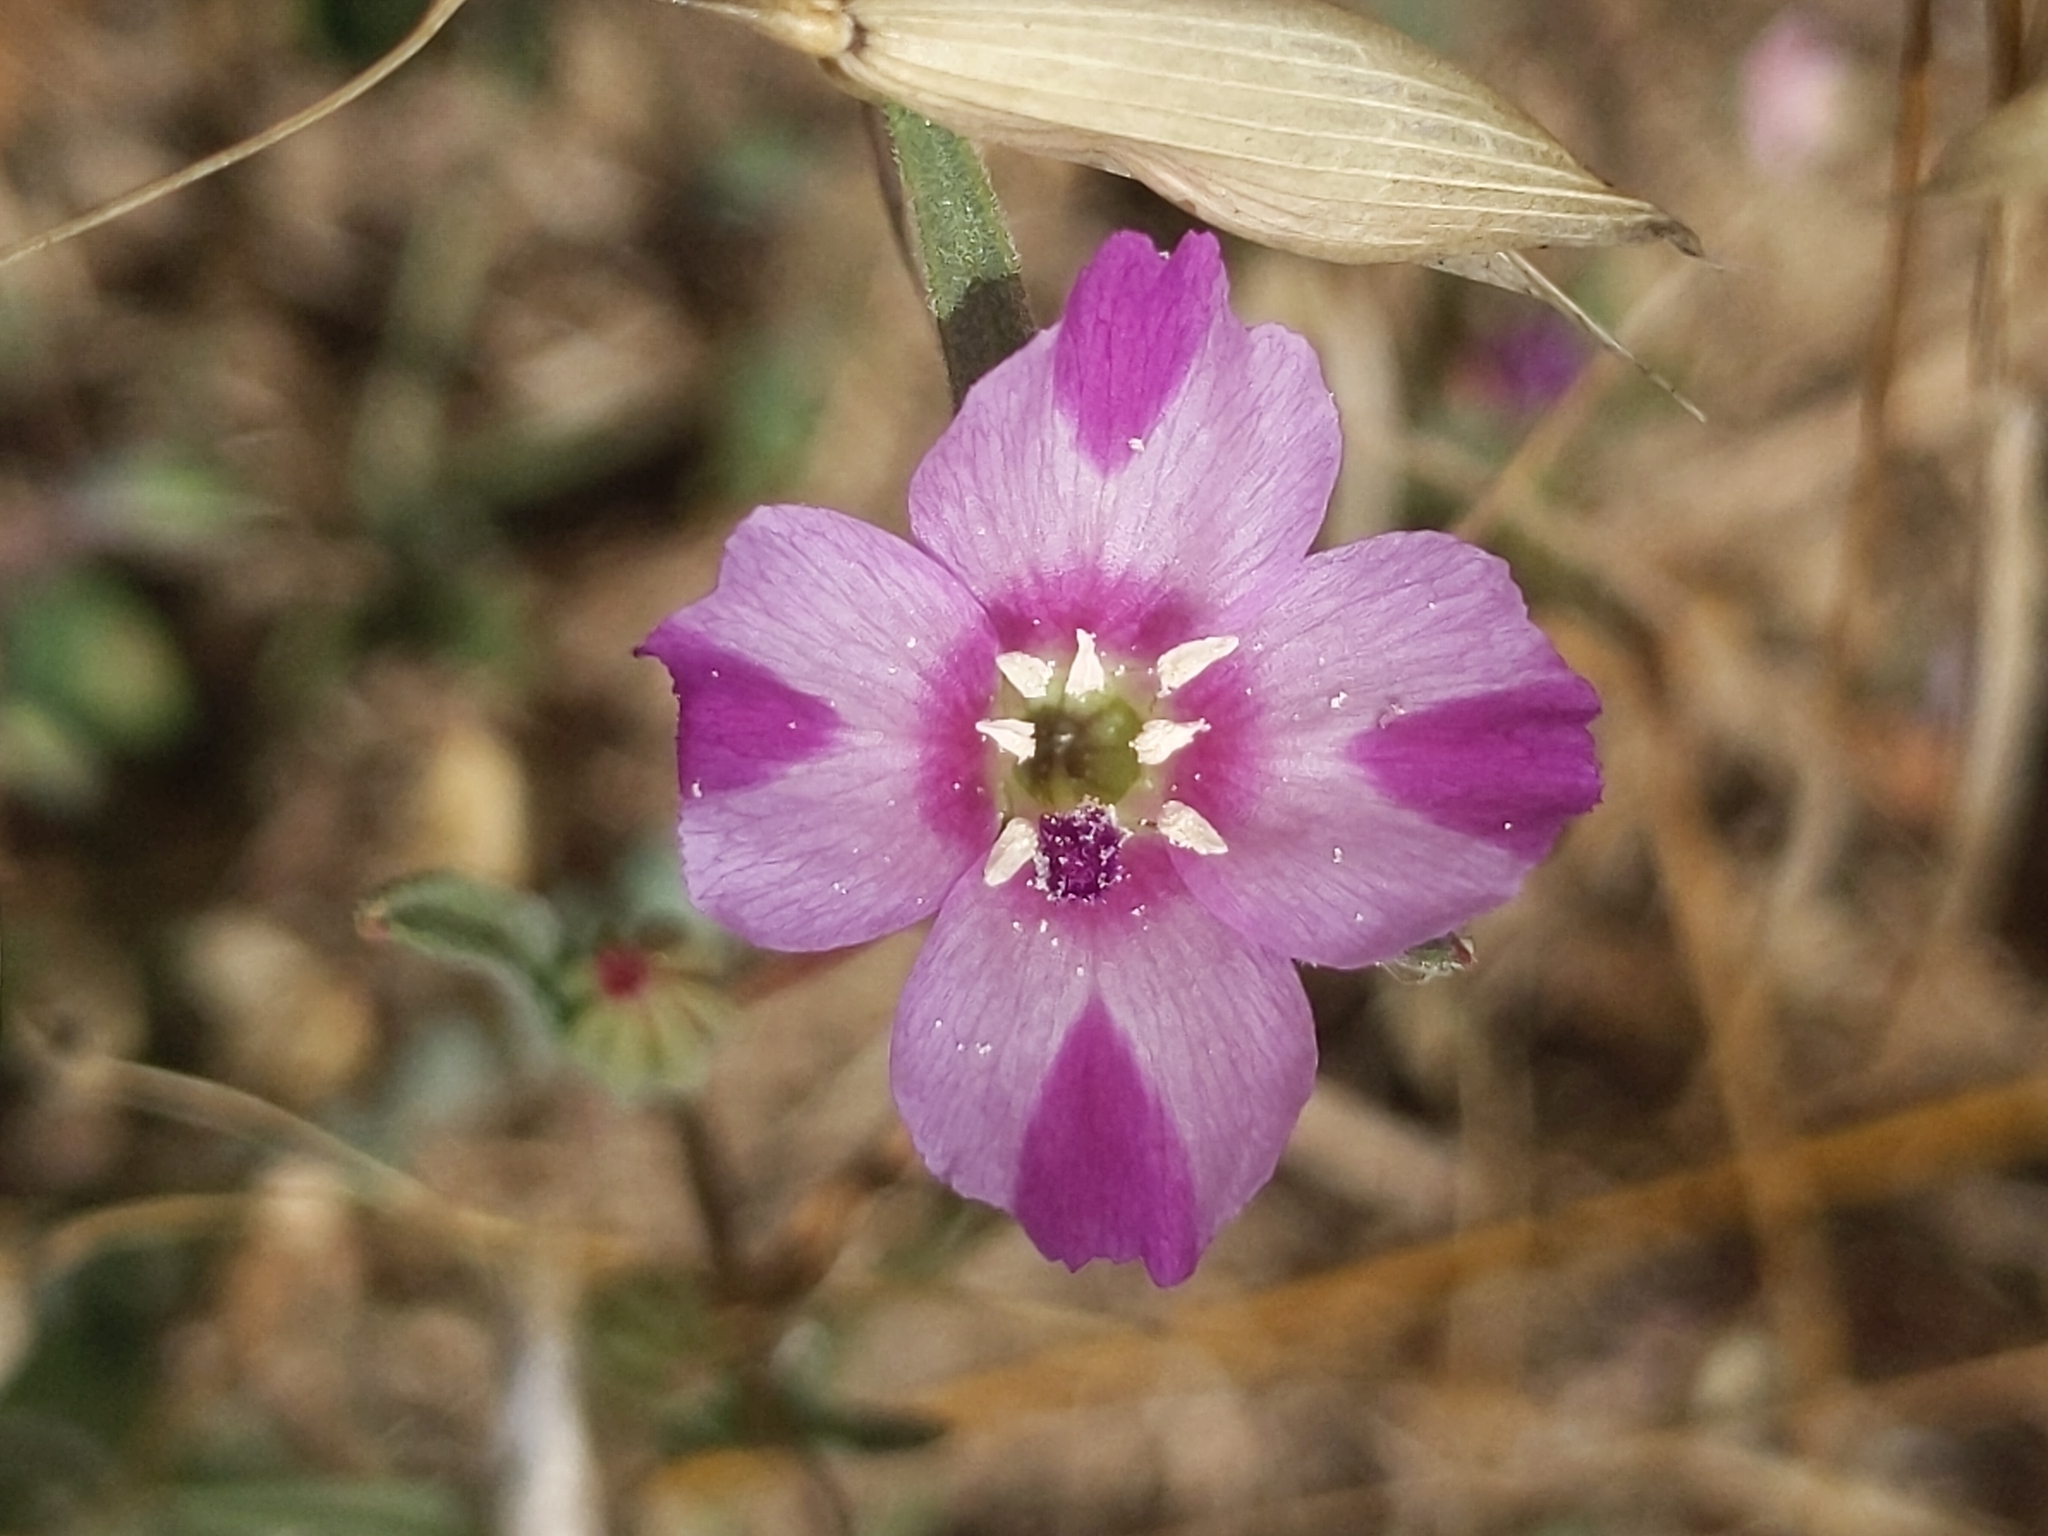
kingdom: Plantae
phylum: Tracheophyta
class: Magnoliopsida
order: Myrtales
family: Onagraceae
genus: Clarkia
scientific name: Clarkia purpurea
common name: Purple clarkia
